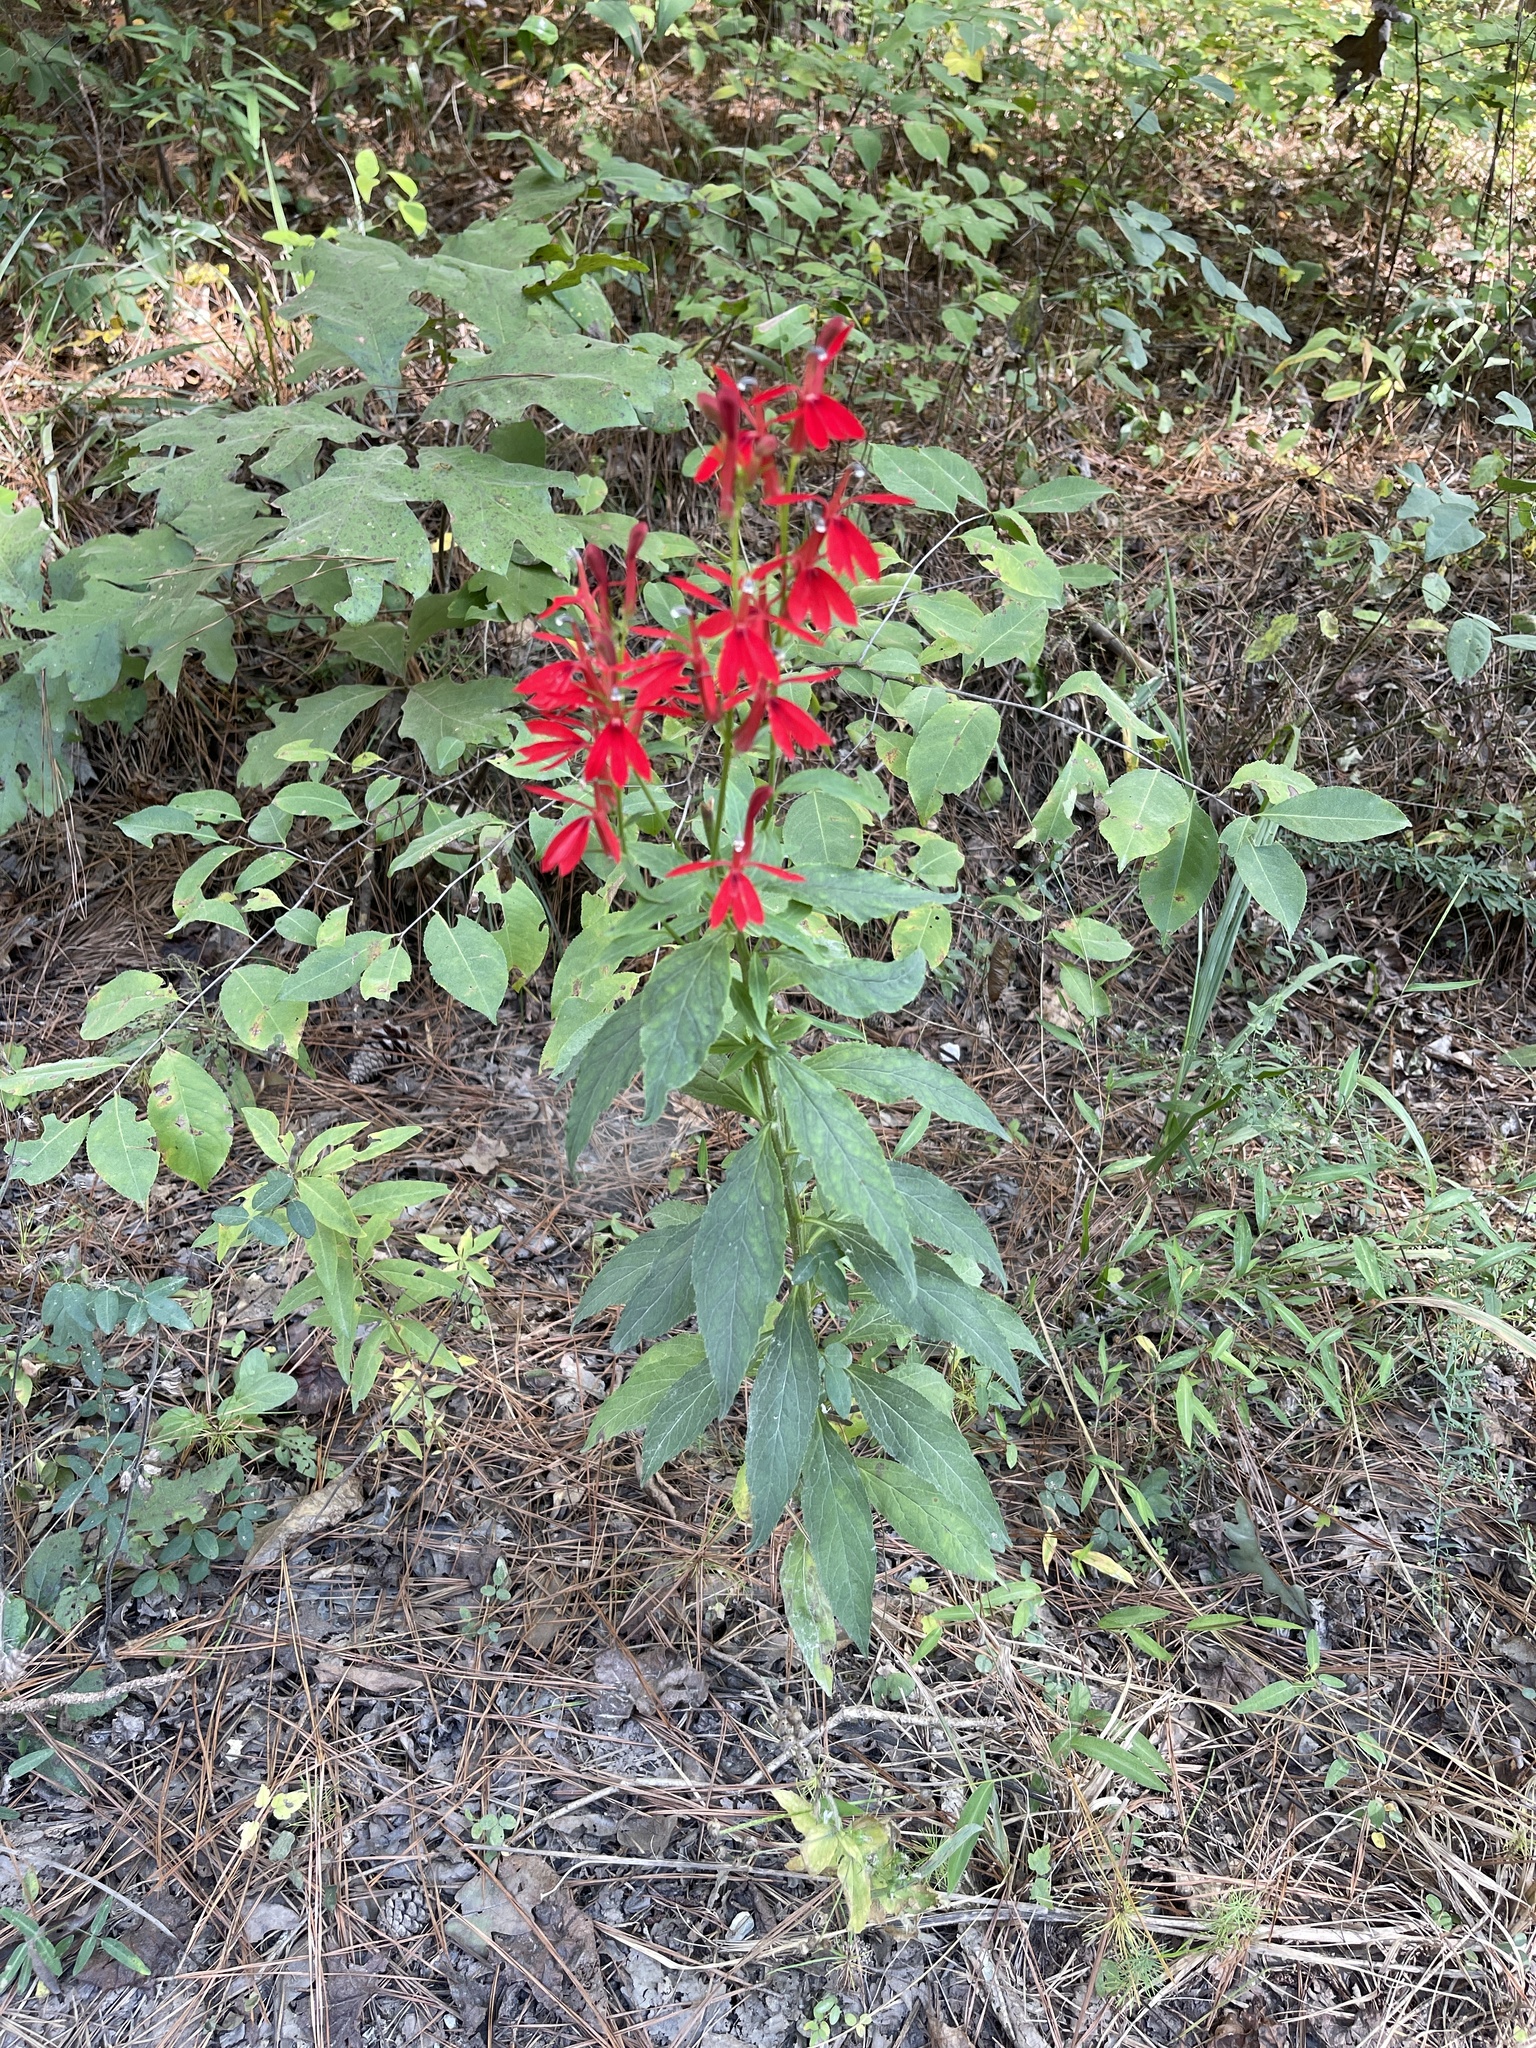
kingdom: Plantae
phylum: Tracheophyta
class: Magnoliopsida
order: Asterales
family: Campanulaceae
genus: Lobelia
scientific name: Lobelia cardinalis
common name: Cardinal flower
